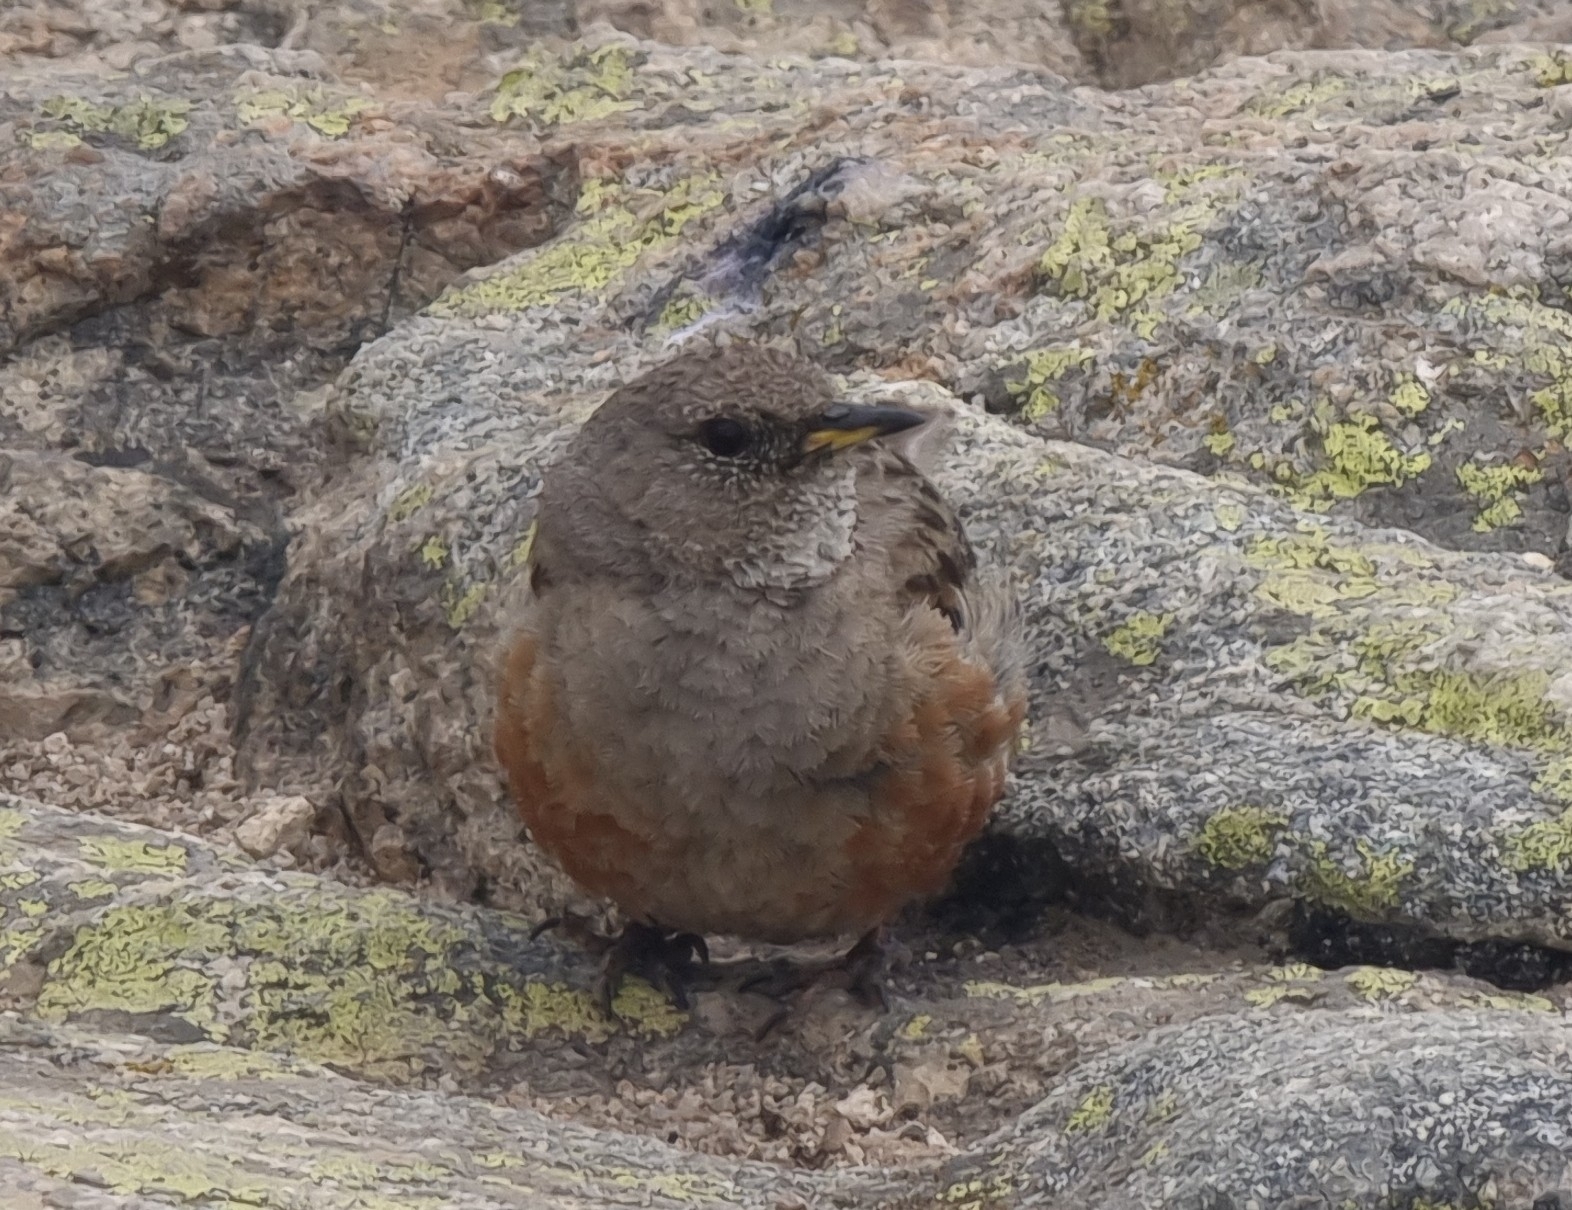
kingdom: Animalia
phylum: Chordata
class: Aves
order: Passeriformes
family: Prunellidae
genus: Prunella
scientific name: Prunella collaris
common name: Alpine accentor
